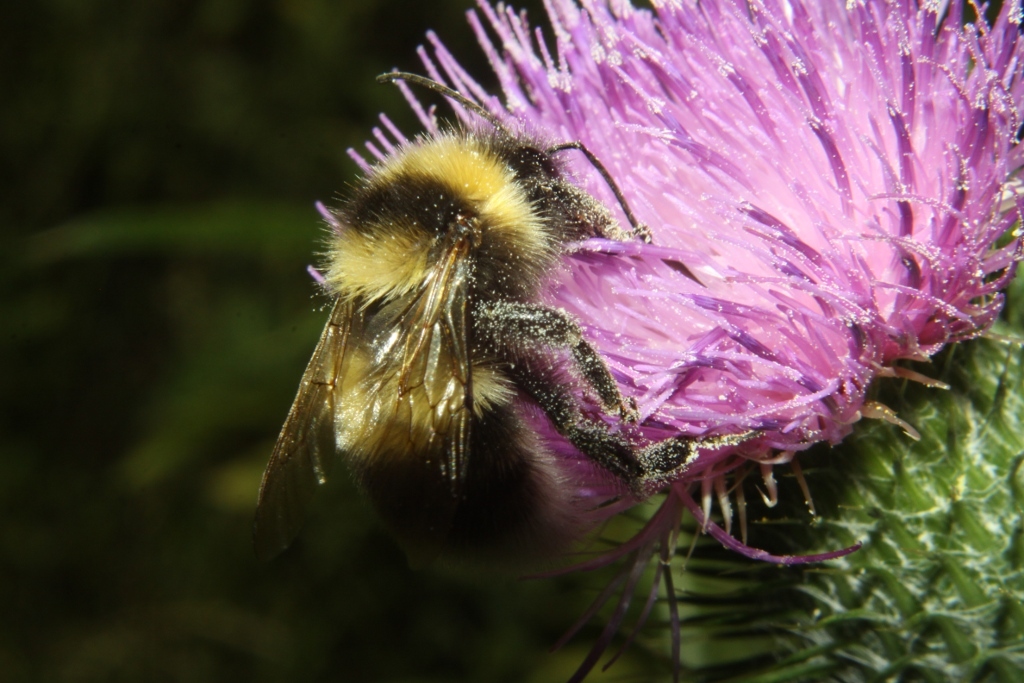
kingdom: Animalia
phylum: Arthropoda
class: Insecta
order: Hymenoptera
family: Apidae
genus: Bombus
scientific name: Bombus ruderatus
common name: Large garden bumblebee
